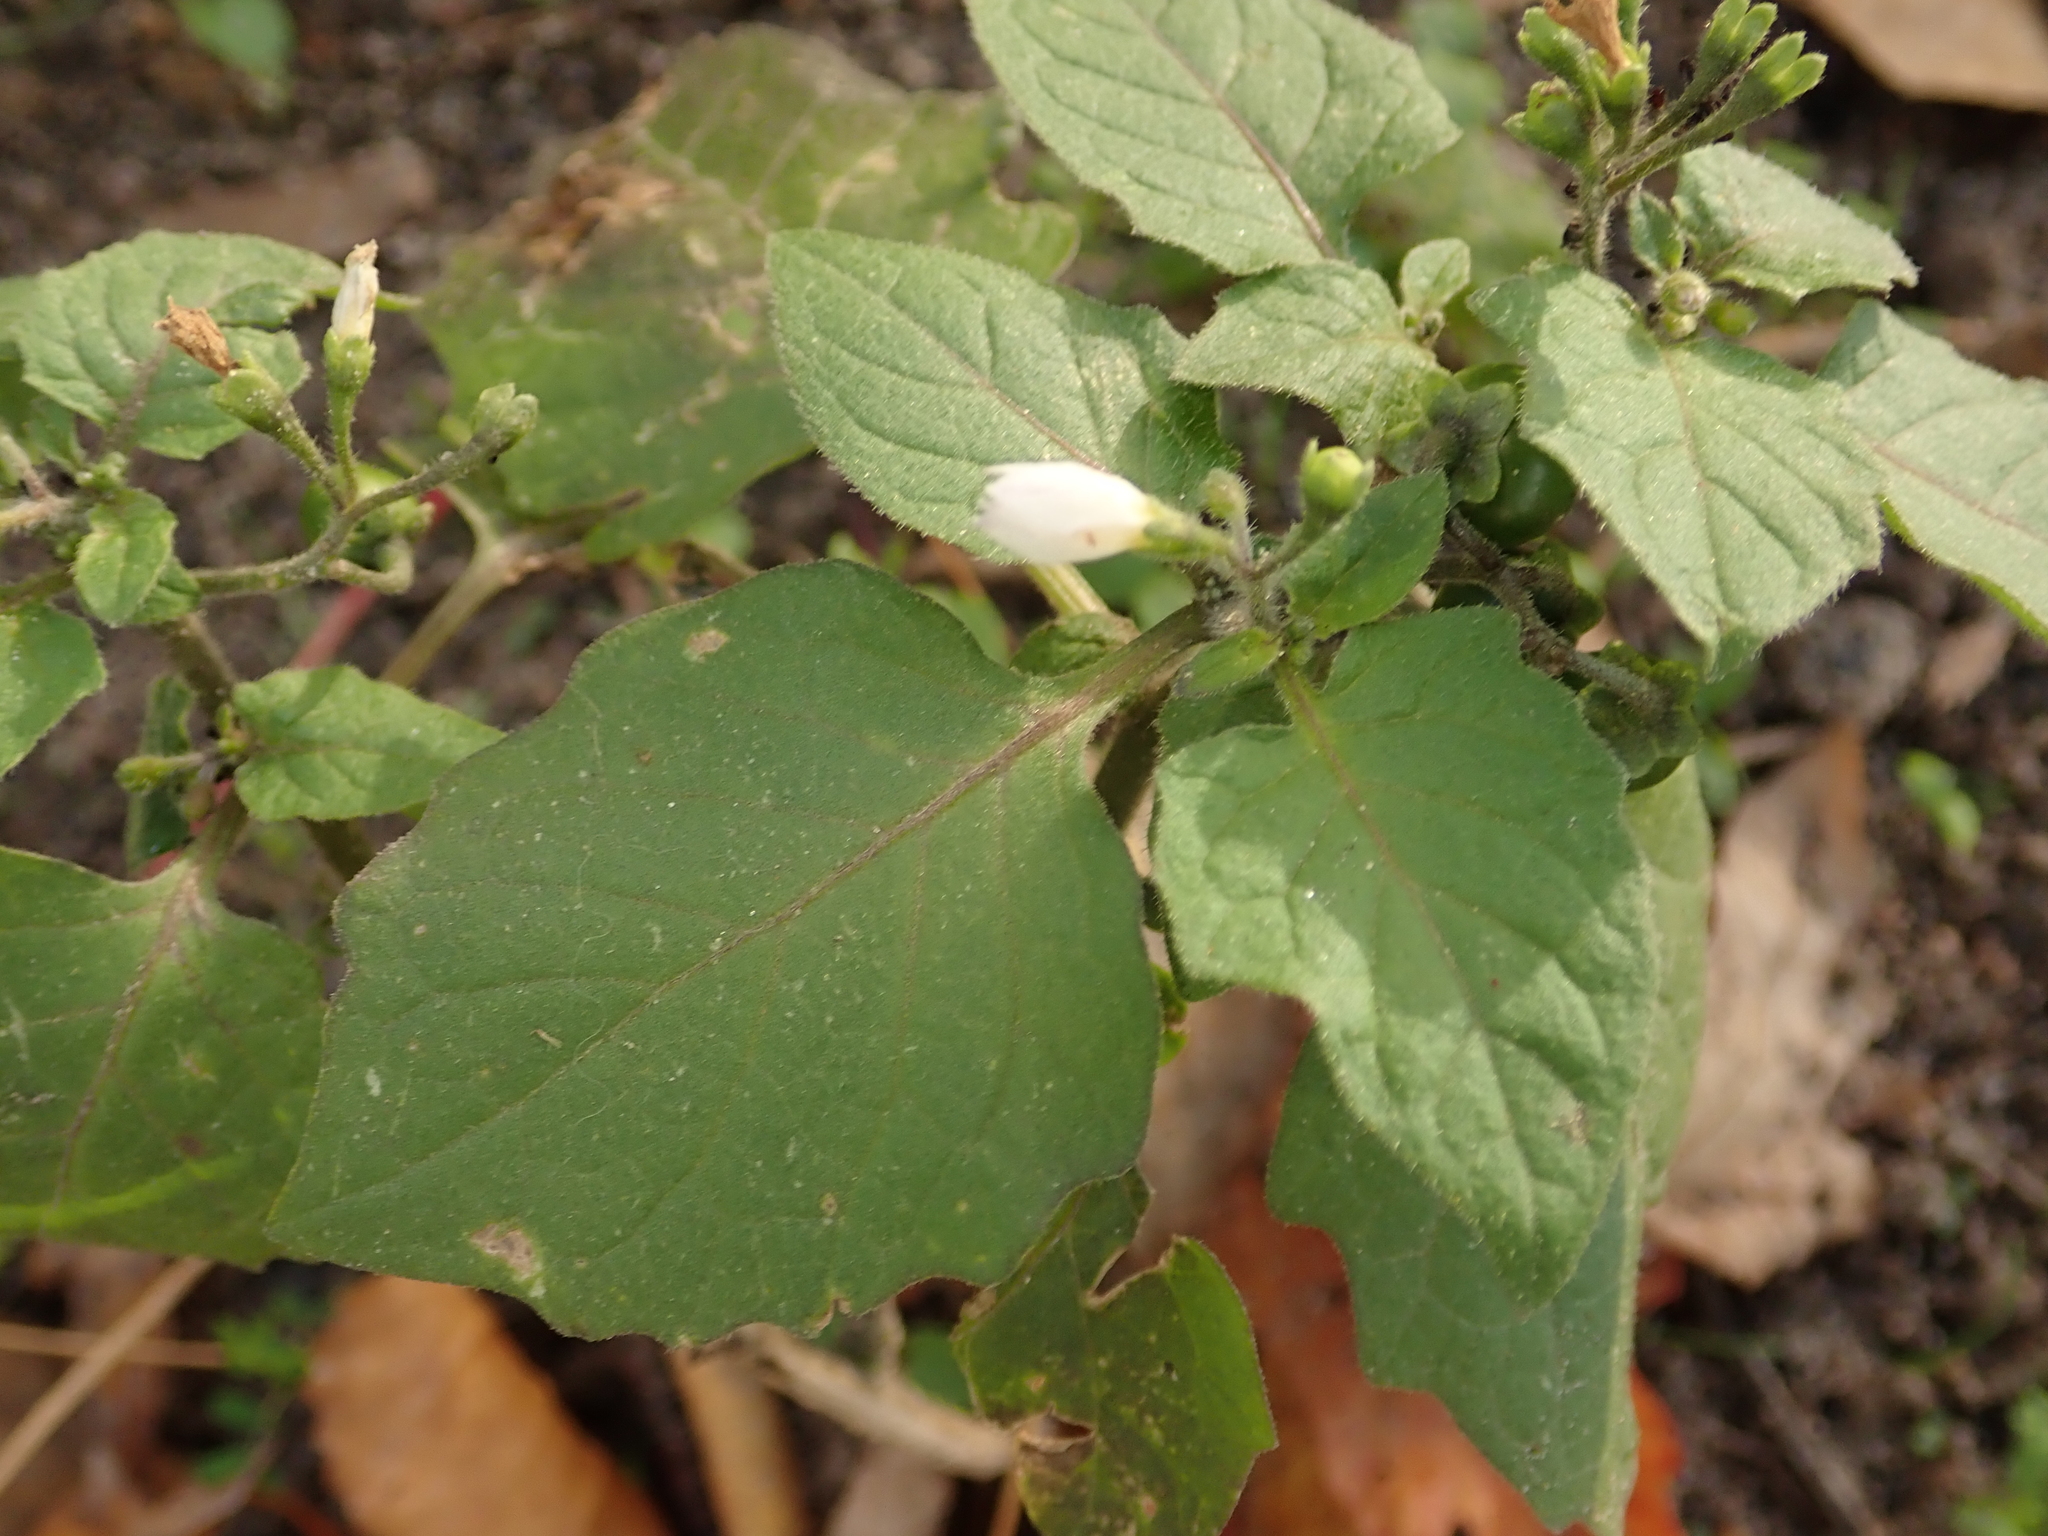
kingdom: Plantae
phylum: Tracheophyta
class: Magnoliopsida
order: Solanales
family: Solanaceae
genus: Solanum
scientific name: Solanum nigrum
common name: Black nightshade
